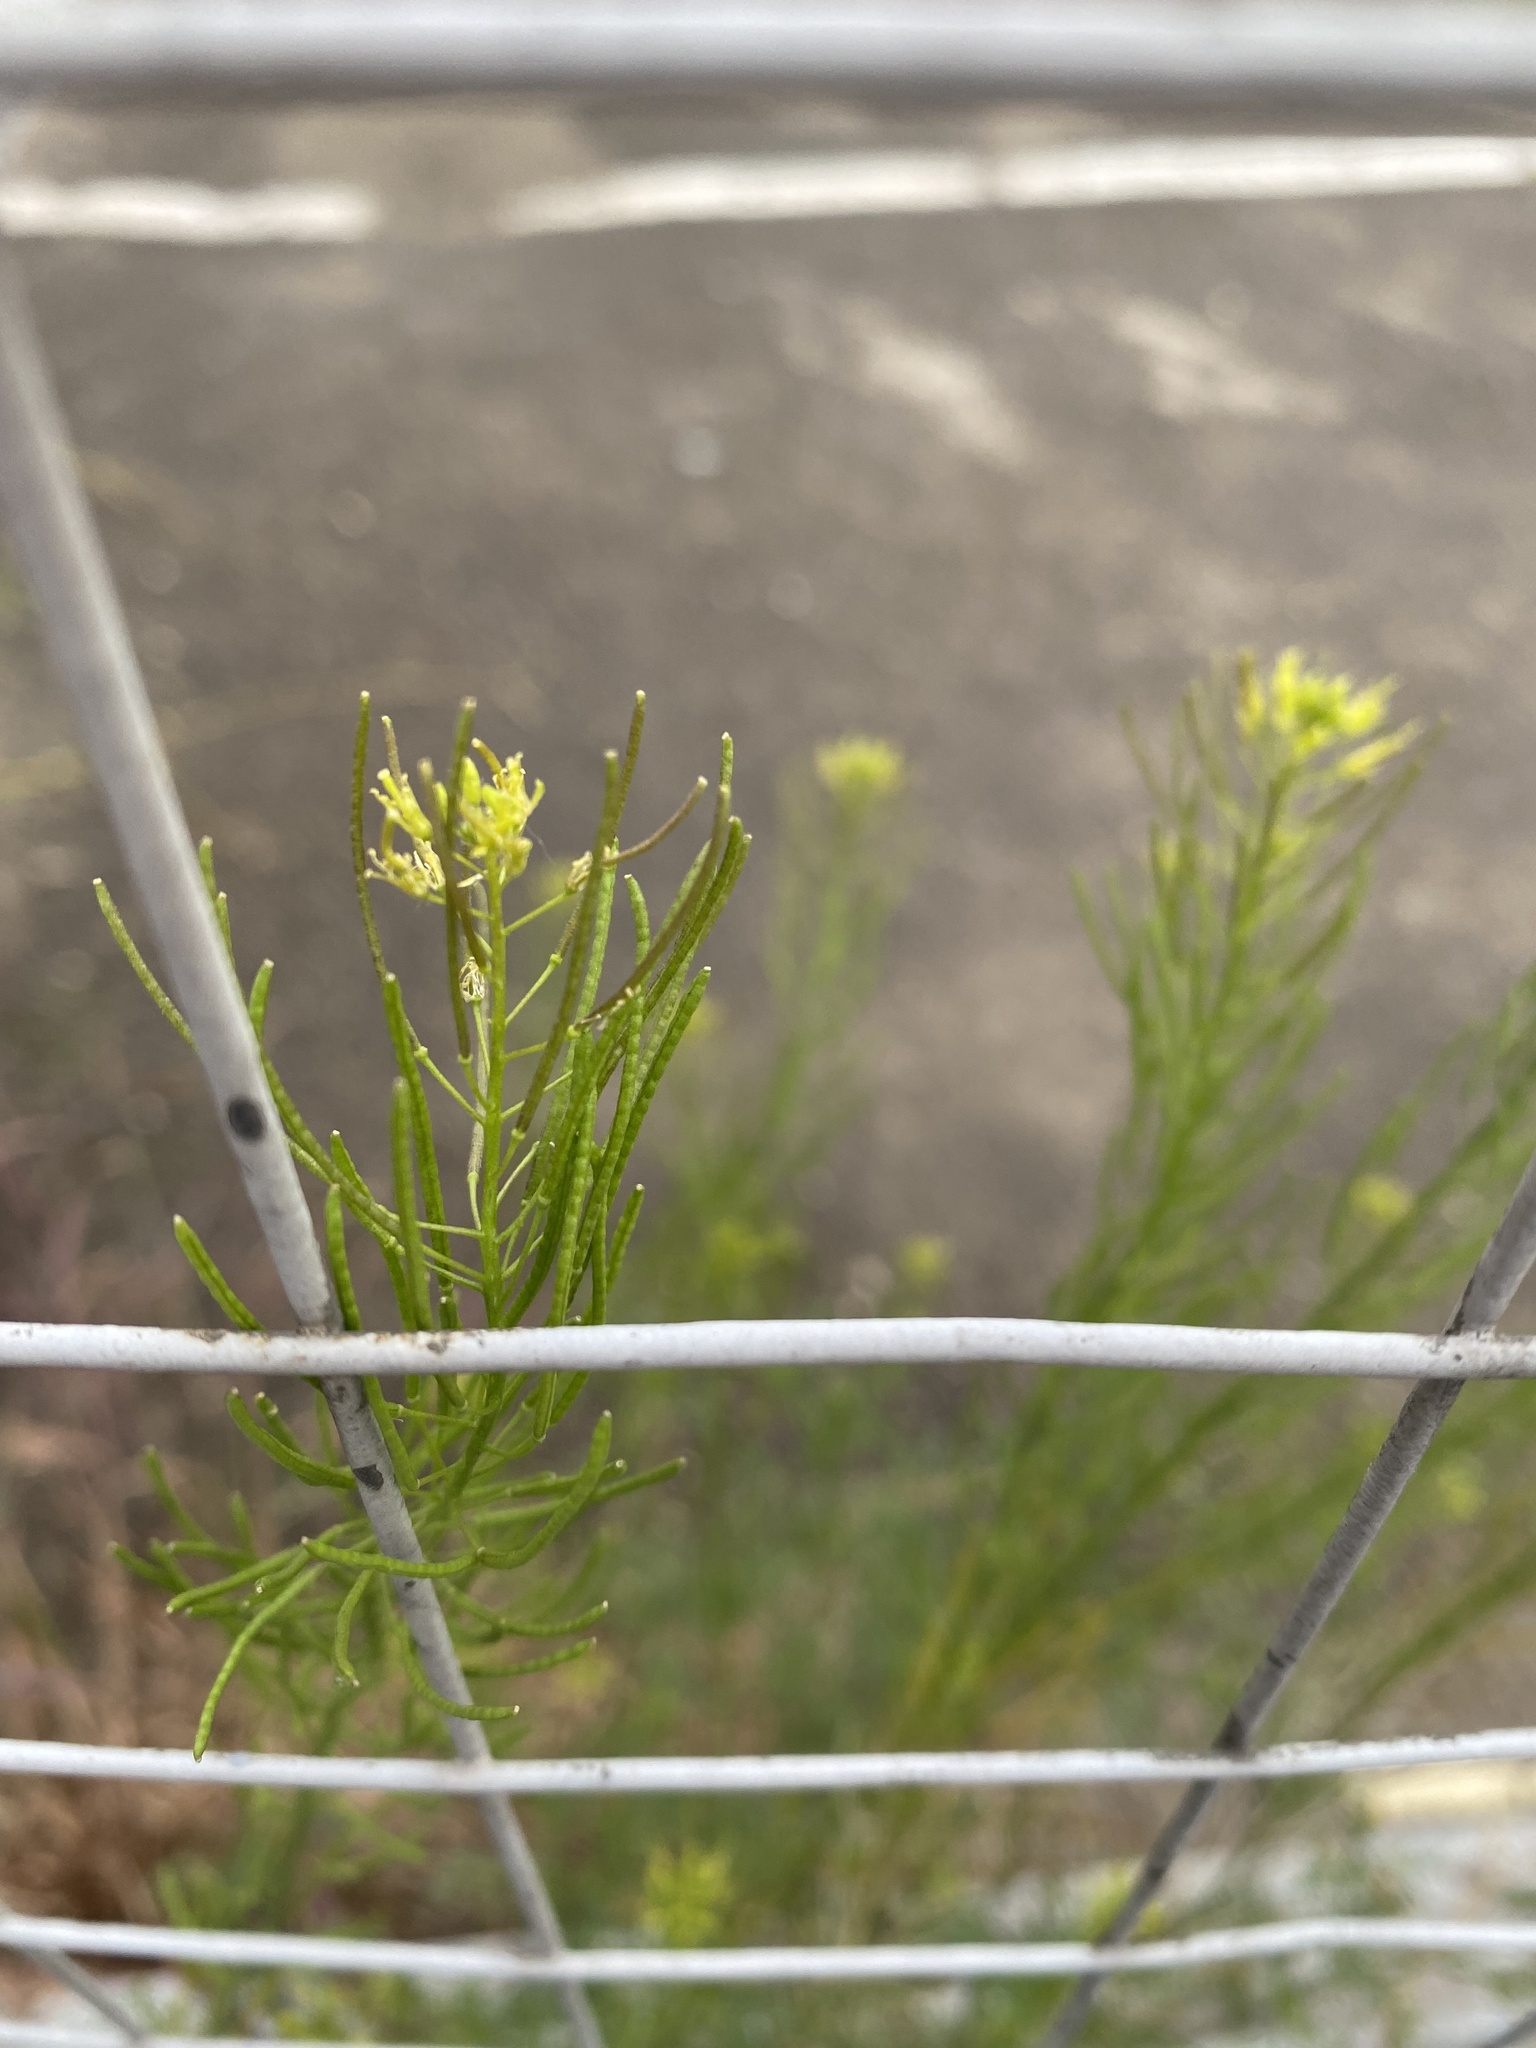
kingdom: Plantae
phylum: Tracheophyta
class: Magnoliopsida
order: Brassicales
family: Brassicaceae
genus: Descurainia
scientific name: Descurainia sophia
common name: Flixweed
